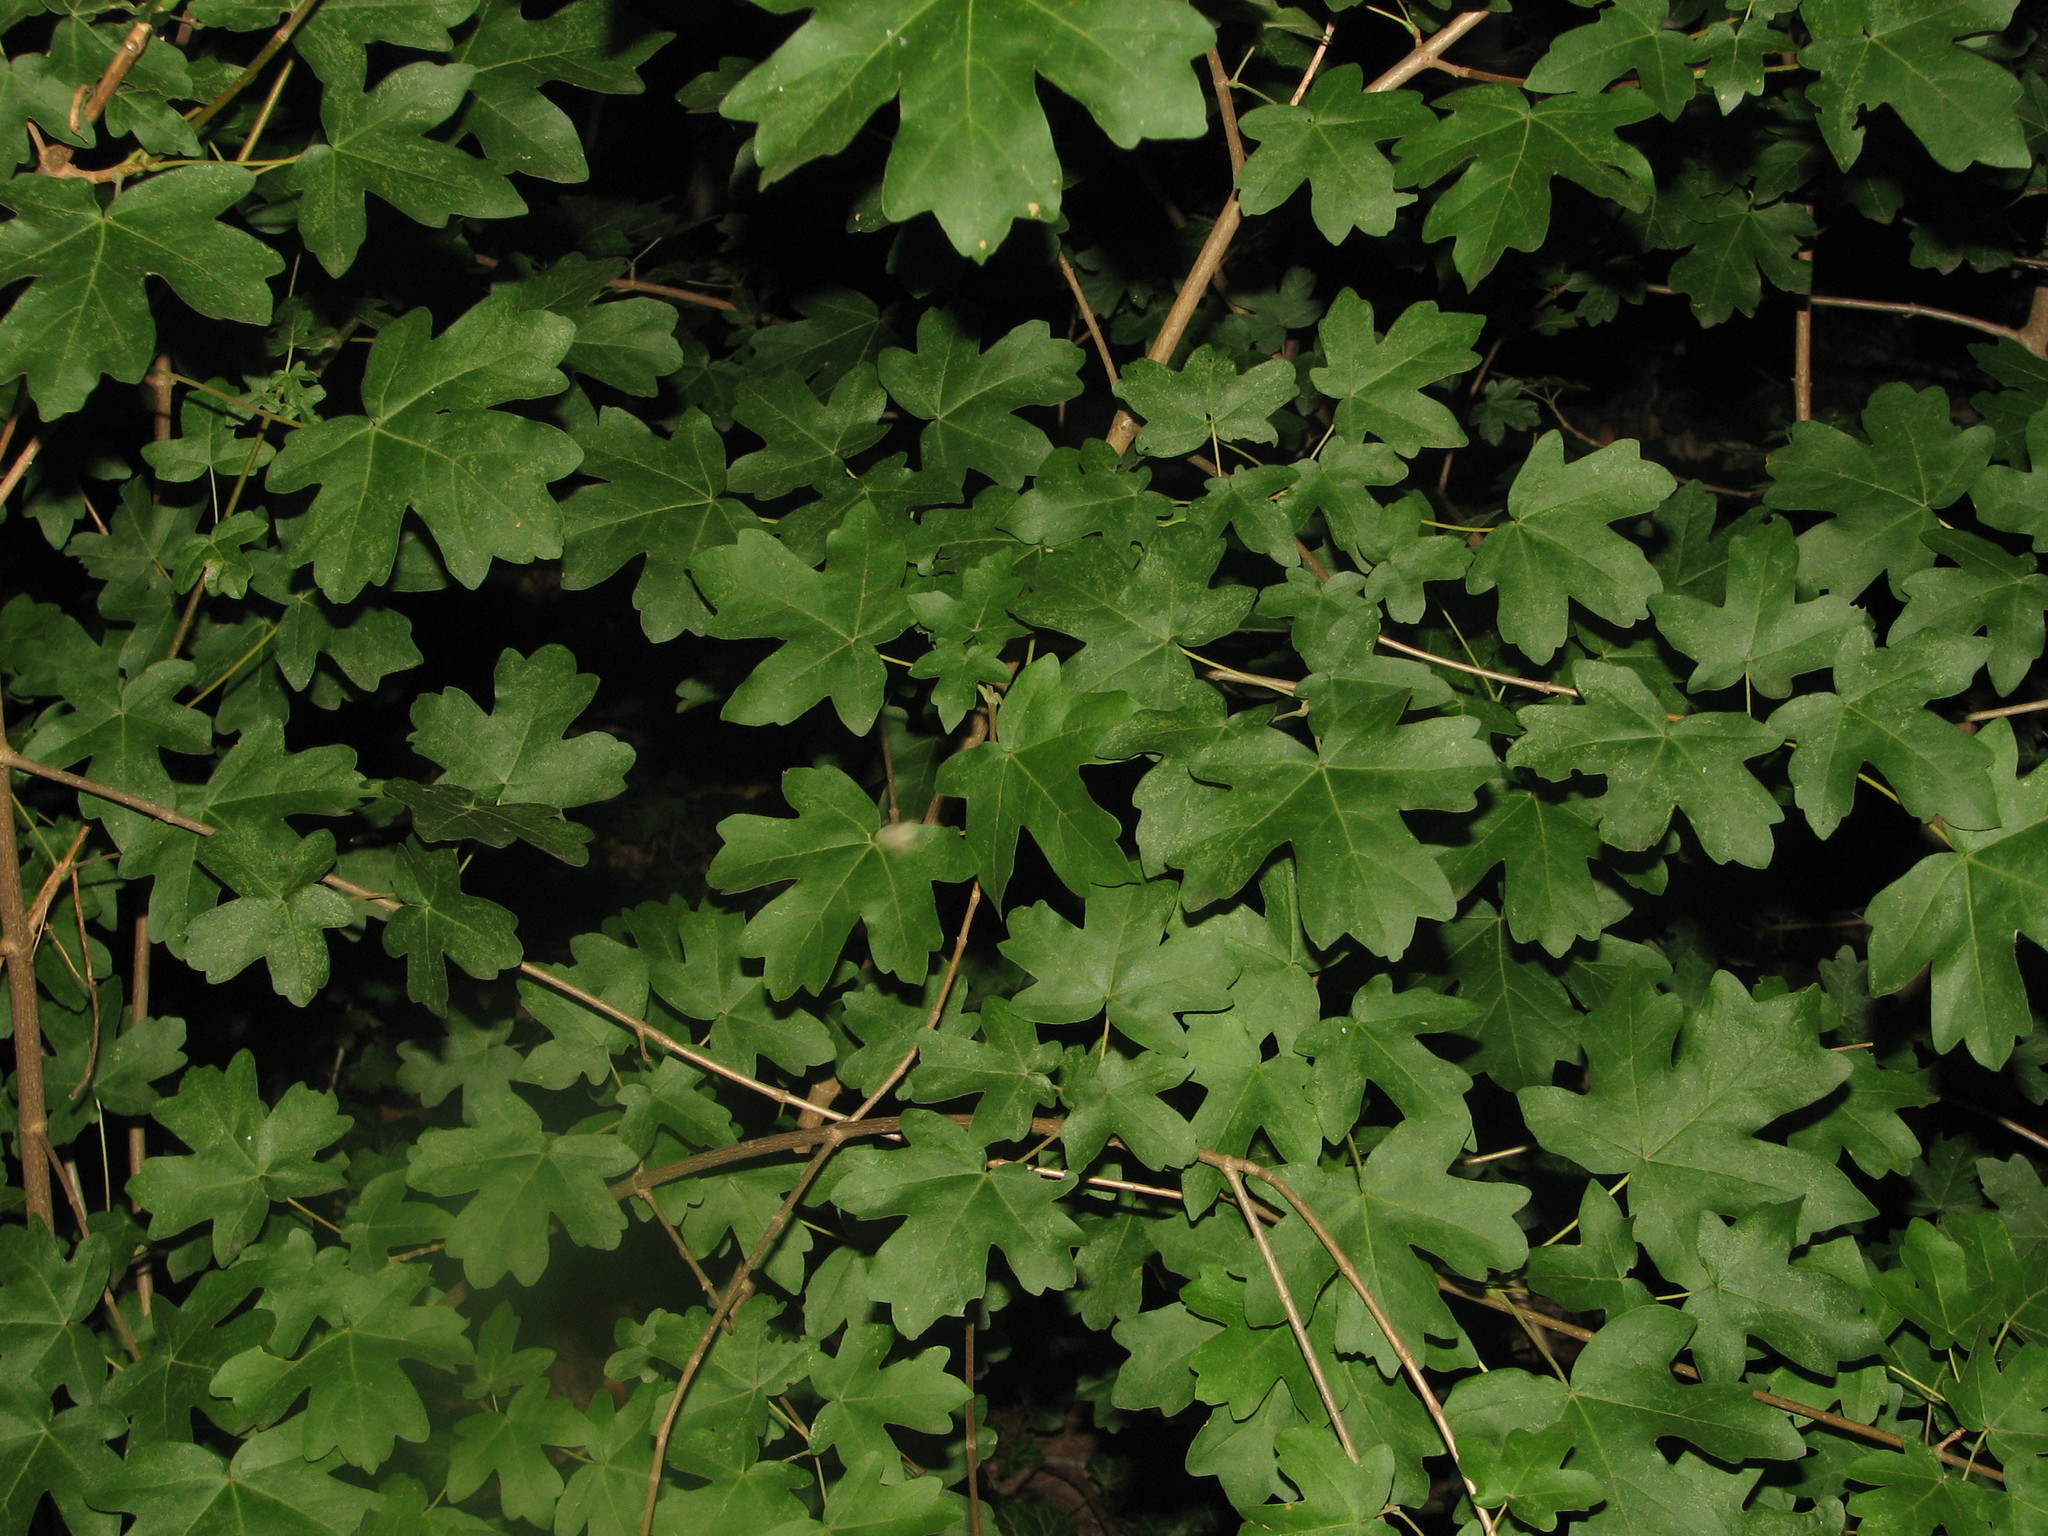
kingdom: Plantae
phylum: Tracheophyta
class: Magnoliopsida
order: Sapindales
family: Sapindaceae
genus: Acer
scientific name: Acer campestre
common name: Field maple
